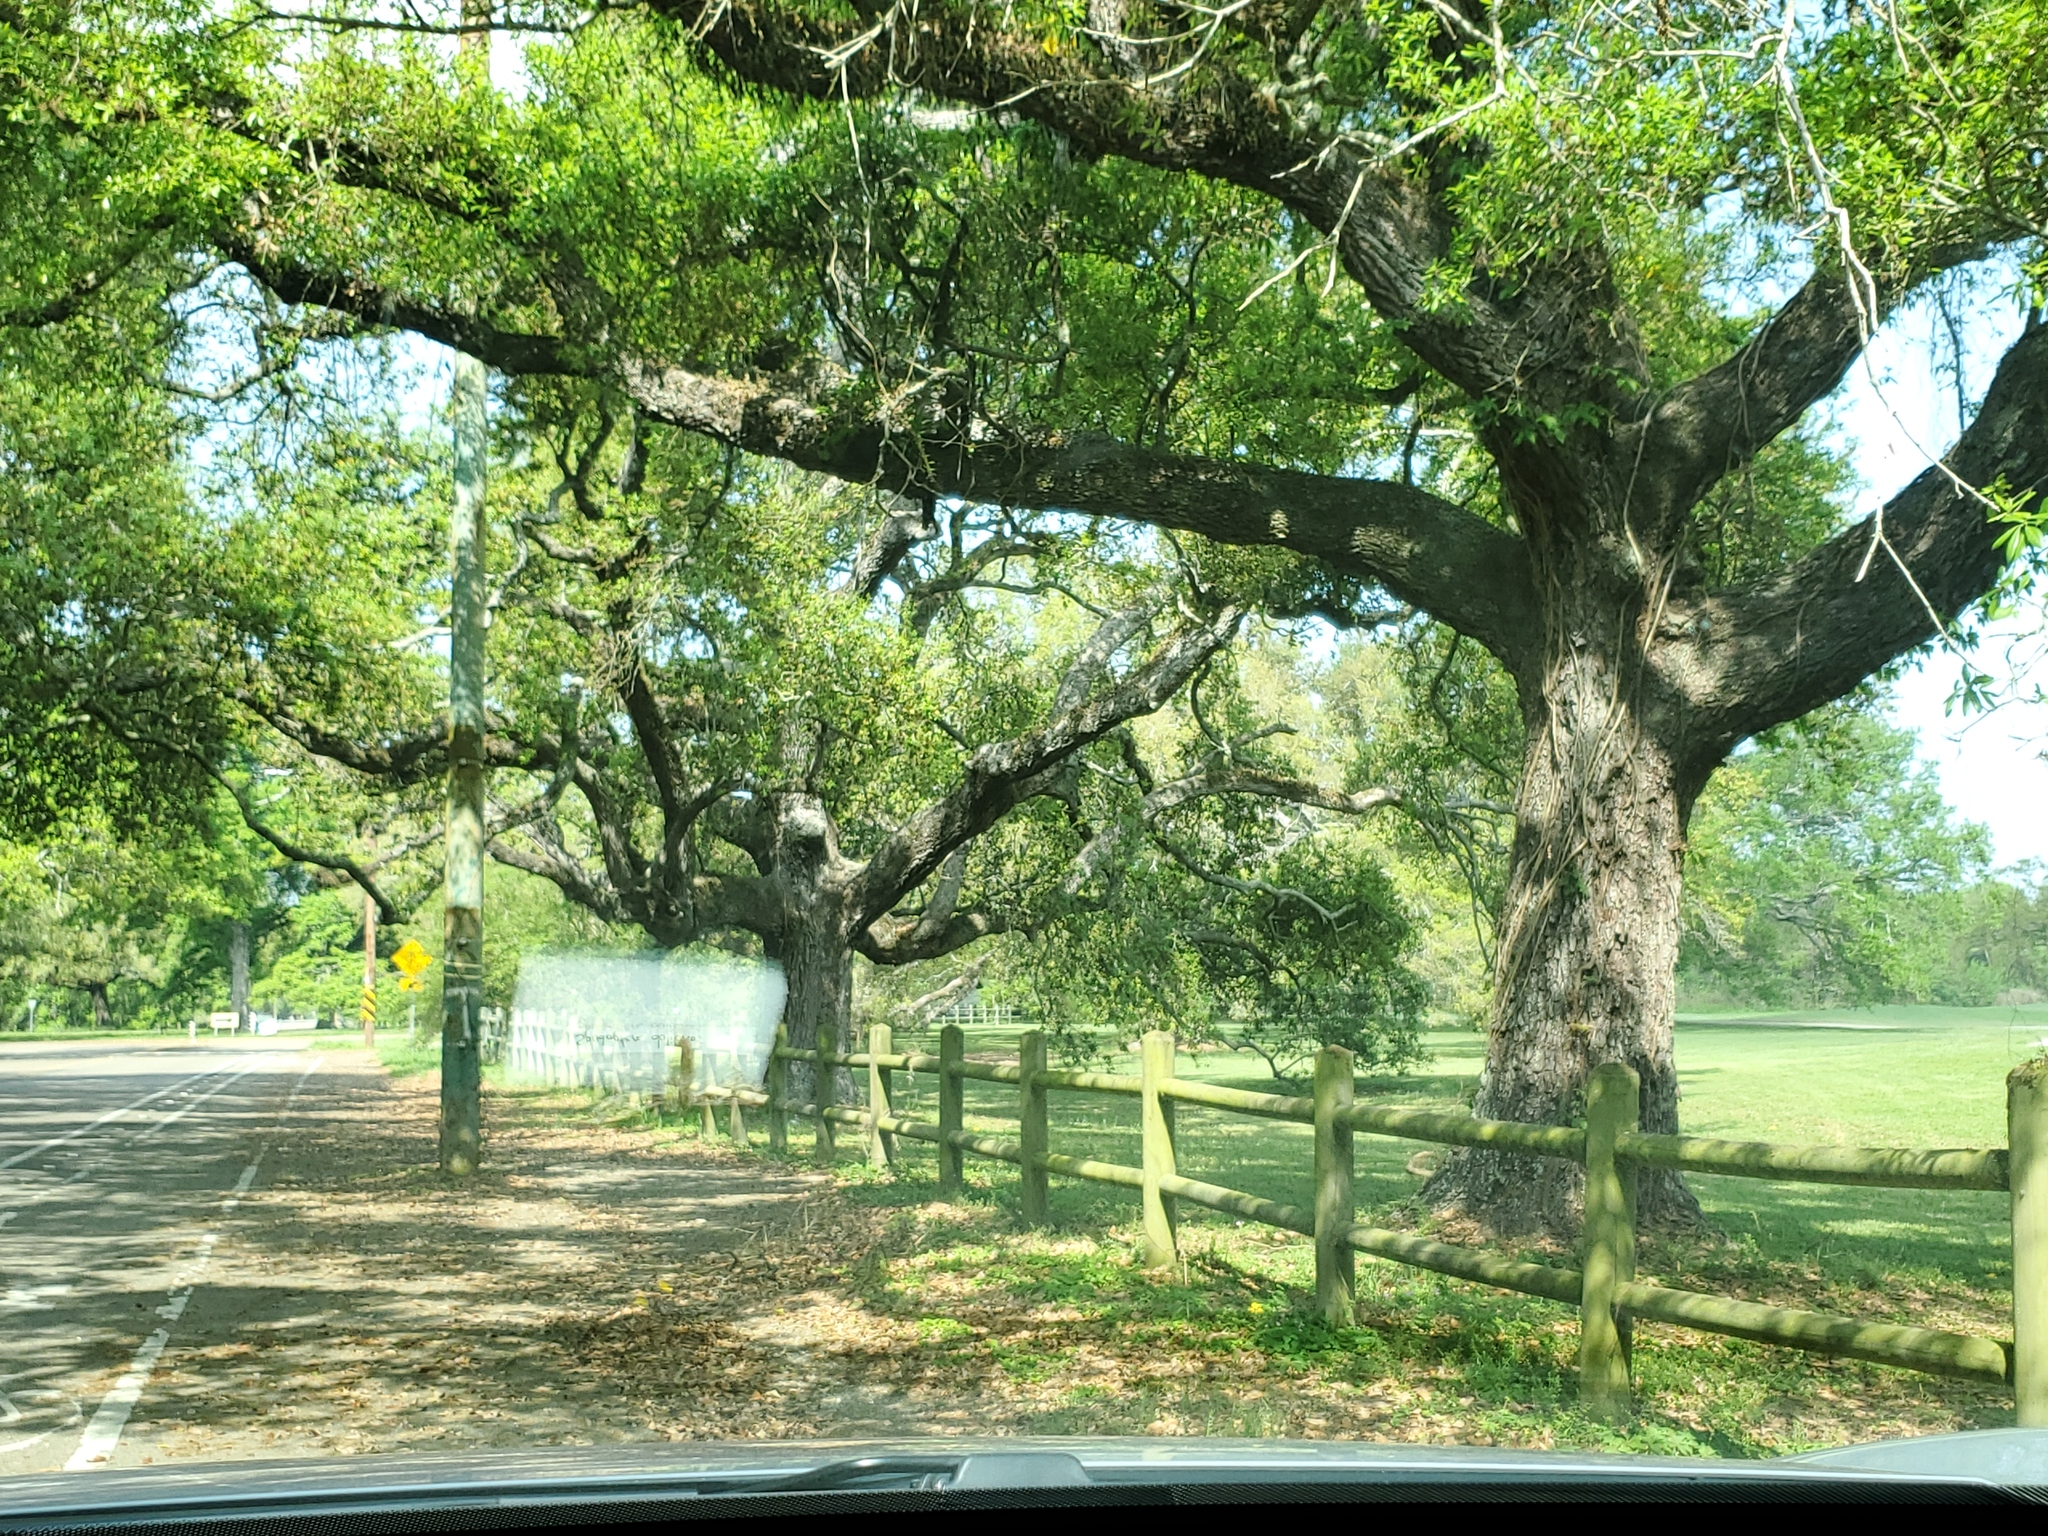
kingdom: Plantae
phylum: Tracheophyta
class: Magnoliopsida
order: Fagales
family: Fagaceae
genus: Quercus
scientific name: Quercus virginiana
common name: Southern live oak
